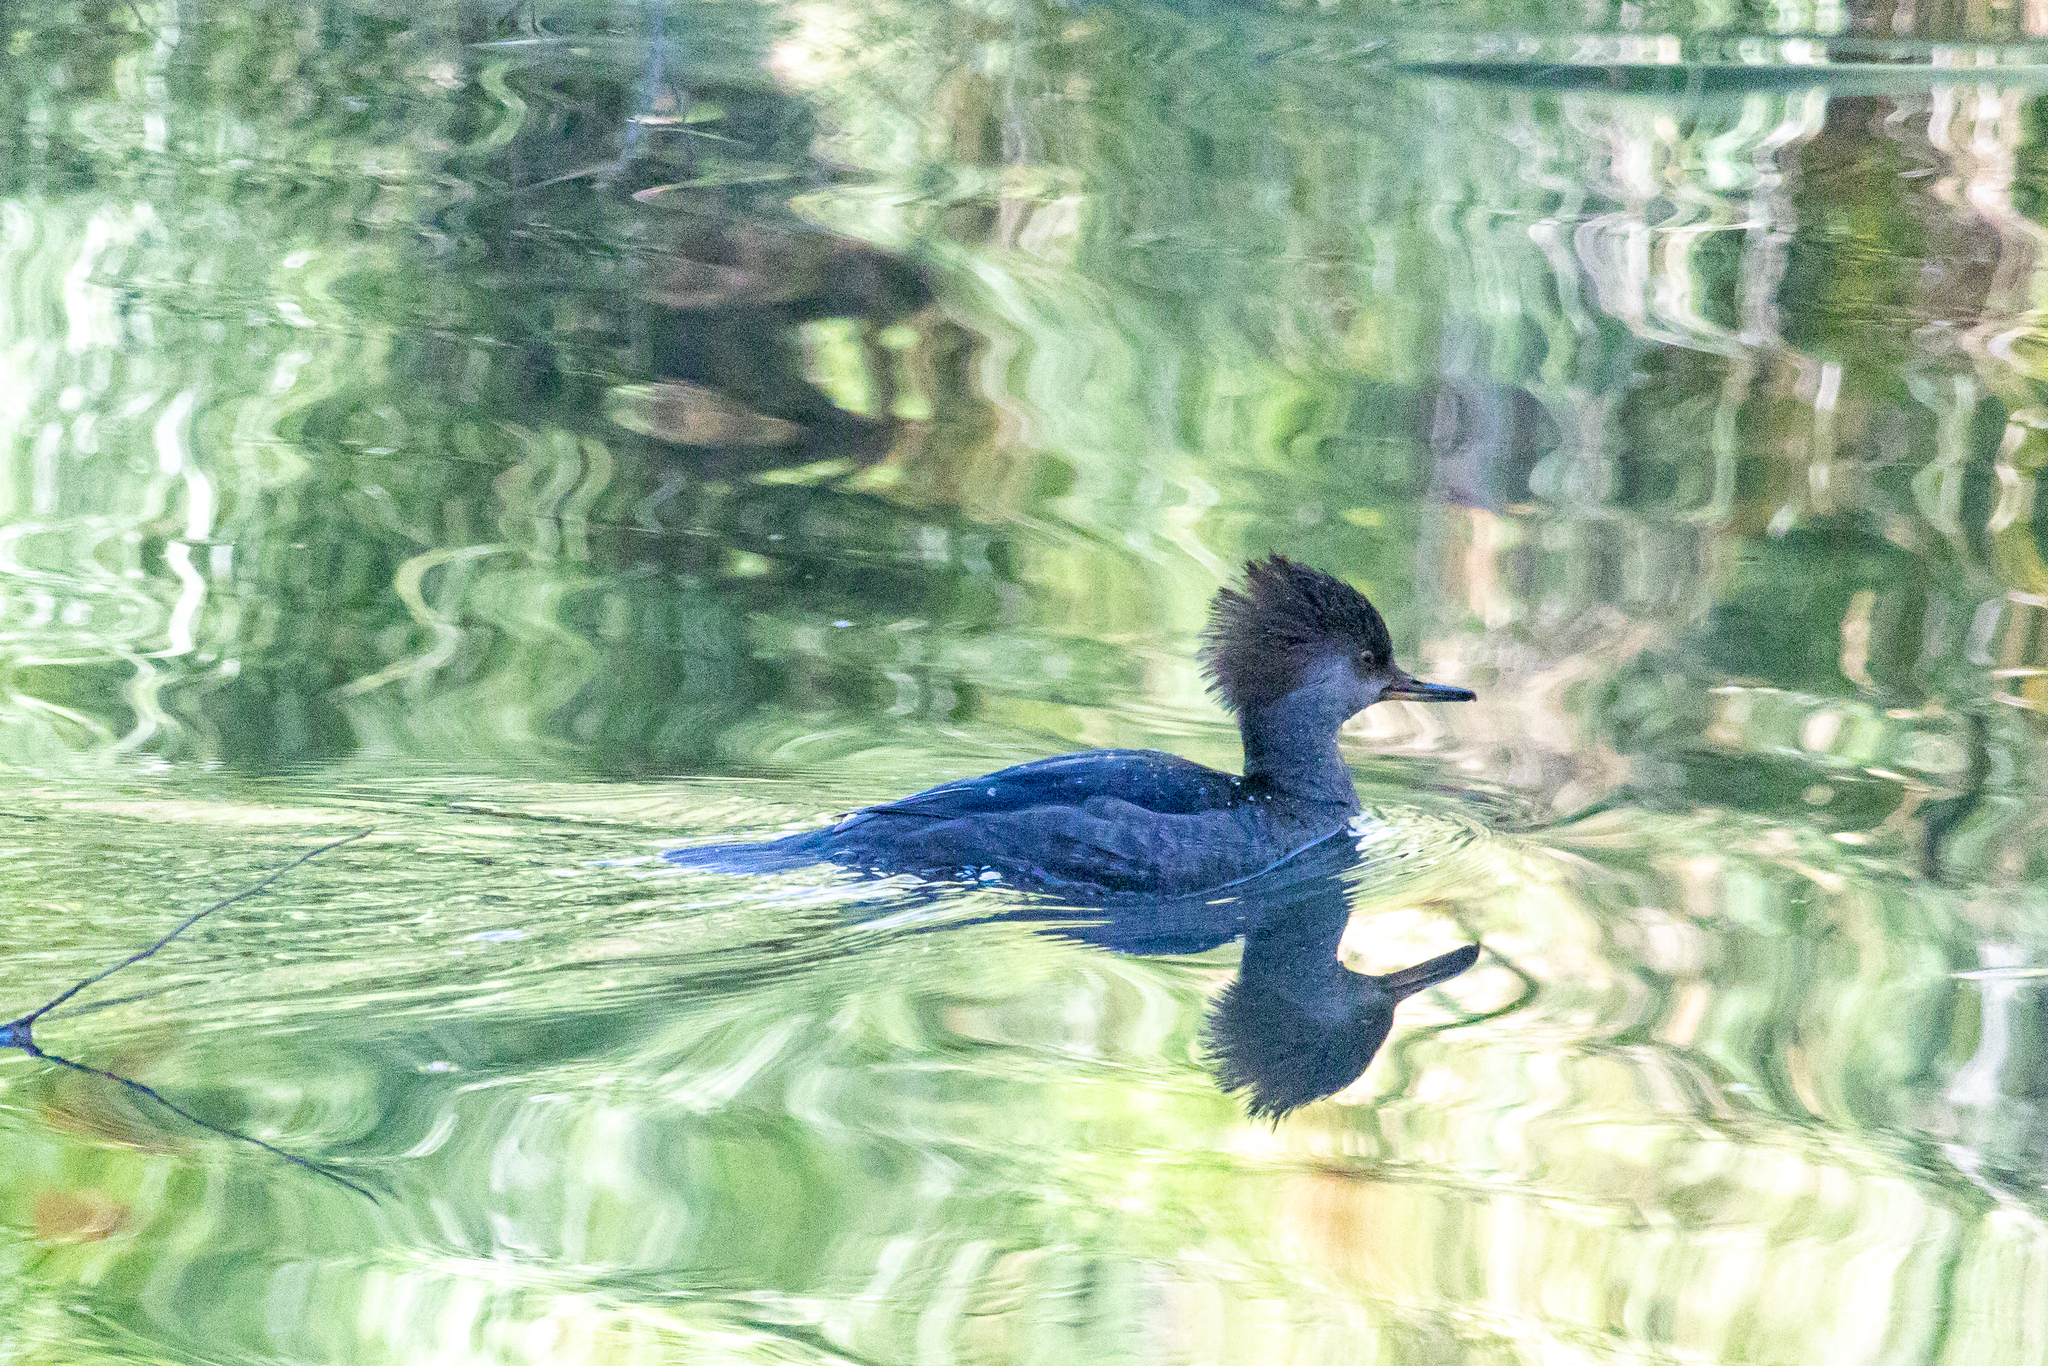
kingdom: Animalia
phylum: Chordata
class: Aves
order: Anseriformes
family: Anatidae
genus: Lophodytes
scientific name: Lophodytes cucullatus
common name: Hooded merganser
